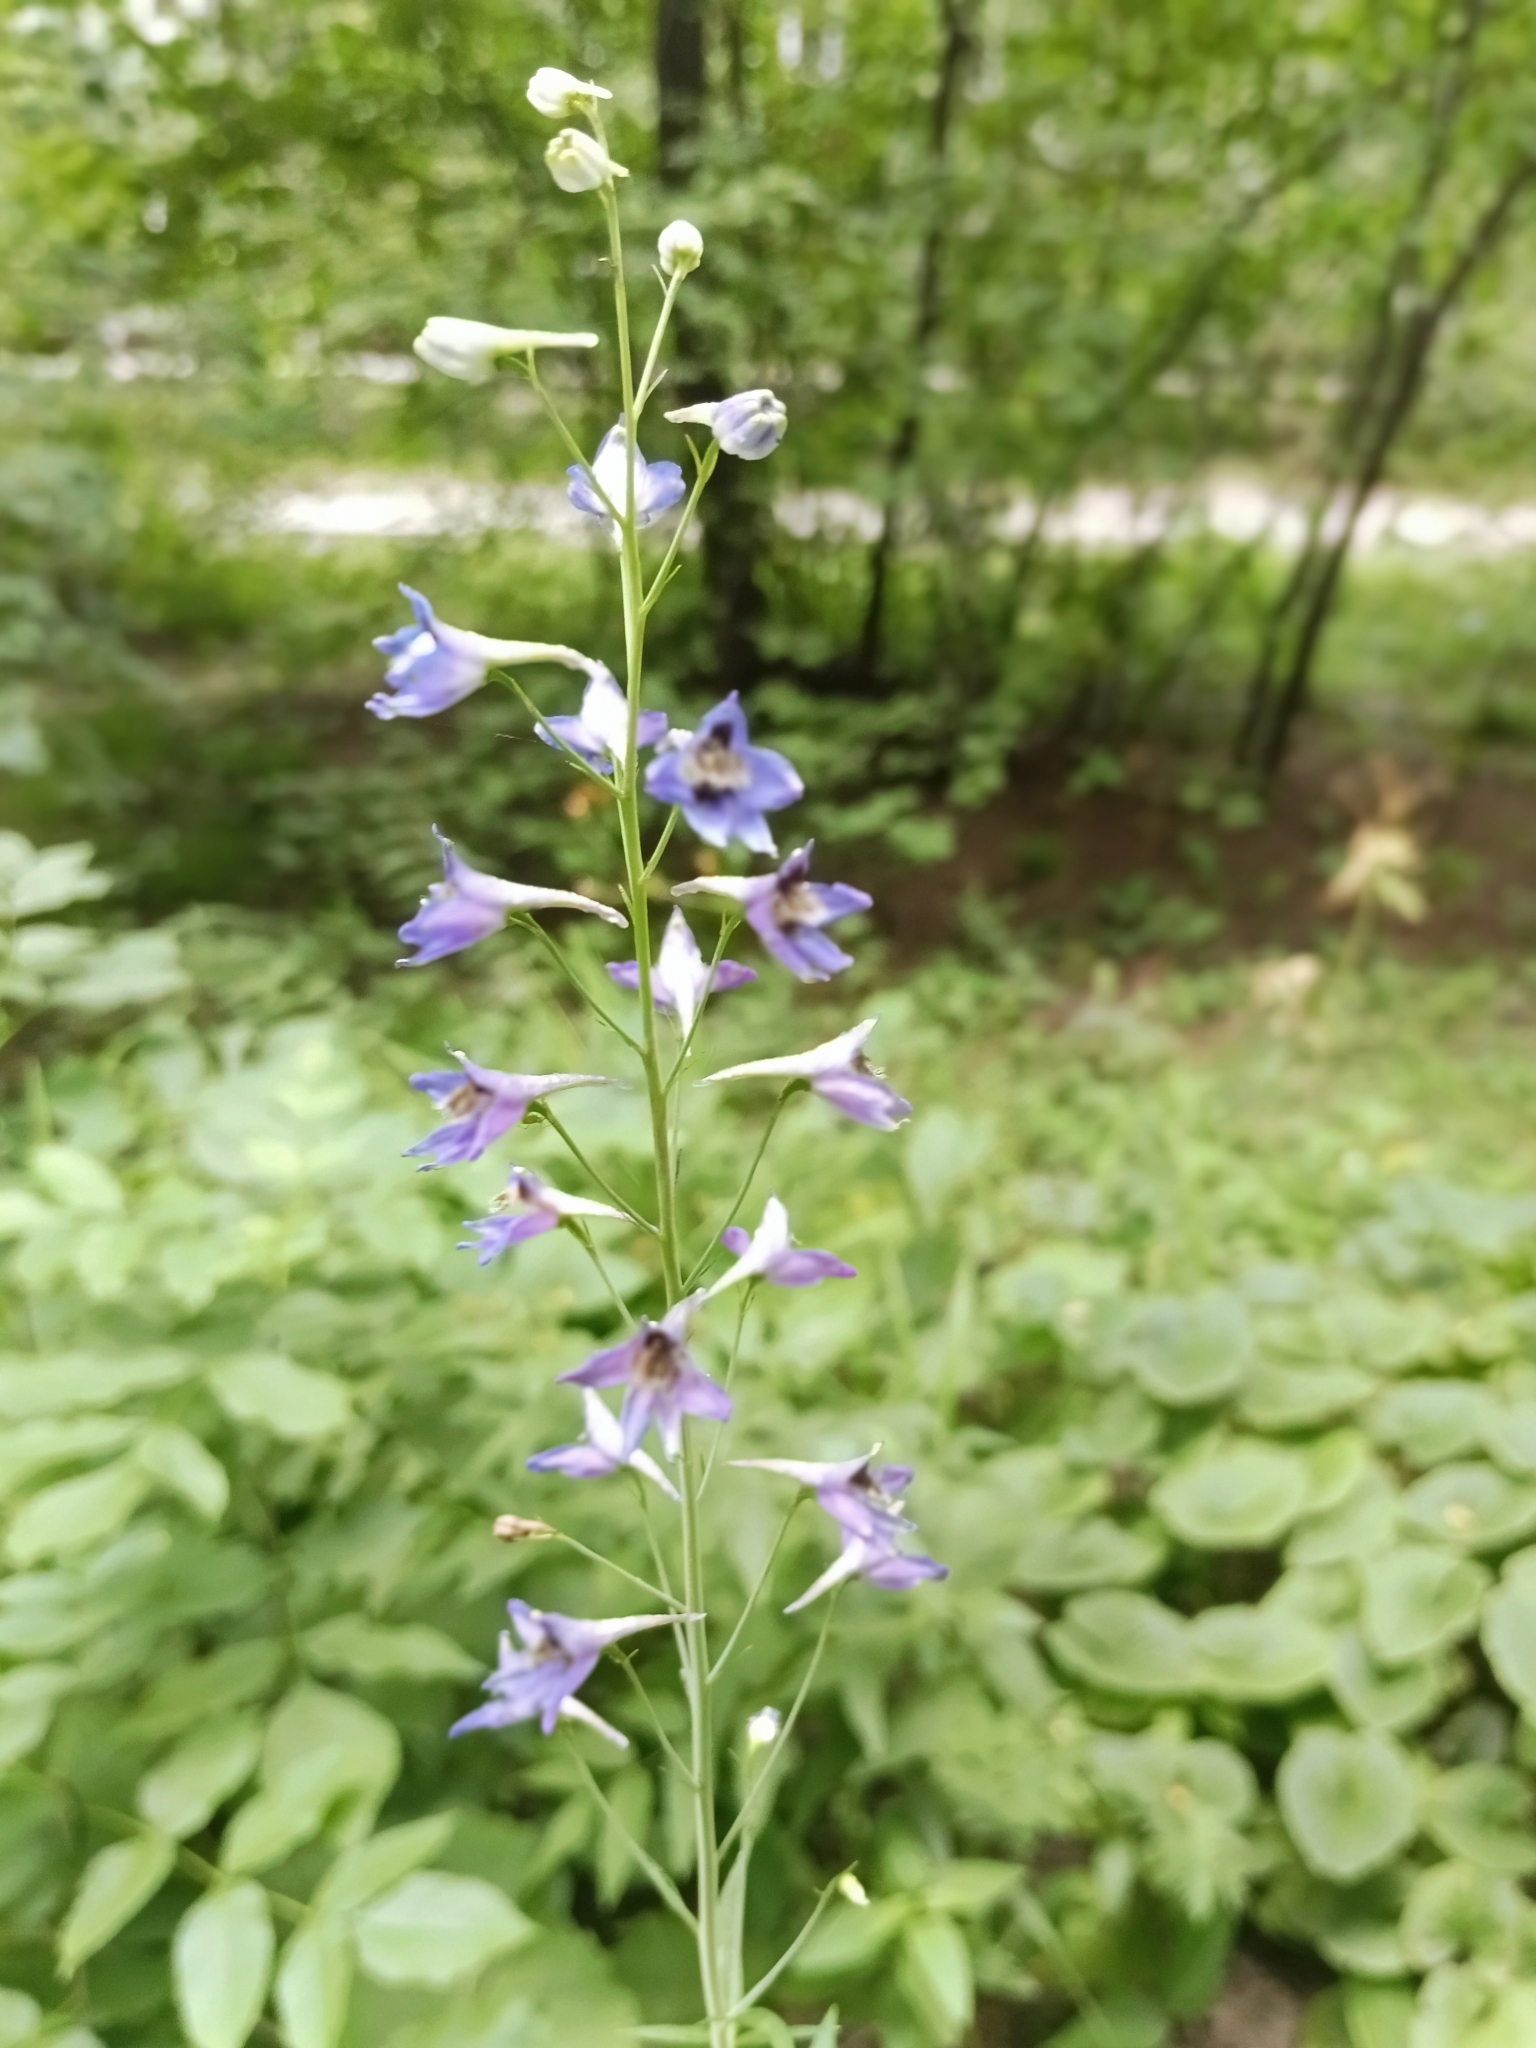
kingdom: Plantae
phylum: Tracheophyta
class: Magnoliopsida
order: Ranunculales
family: Ranunculaceae
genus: Delphinium
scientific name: Delphinium elatum
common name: Candle larkspur
